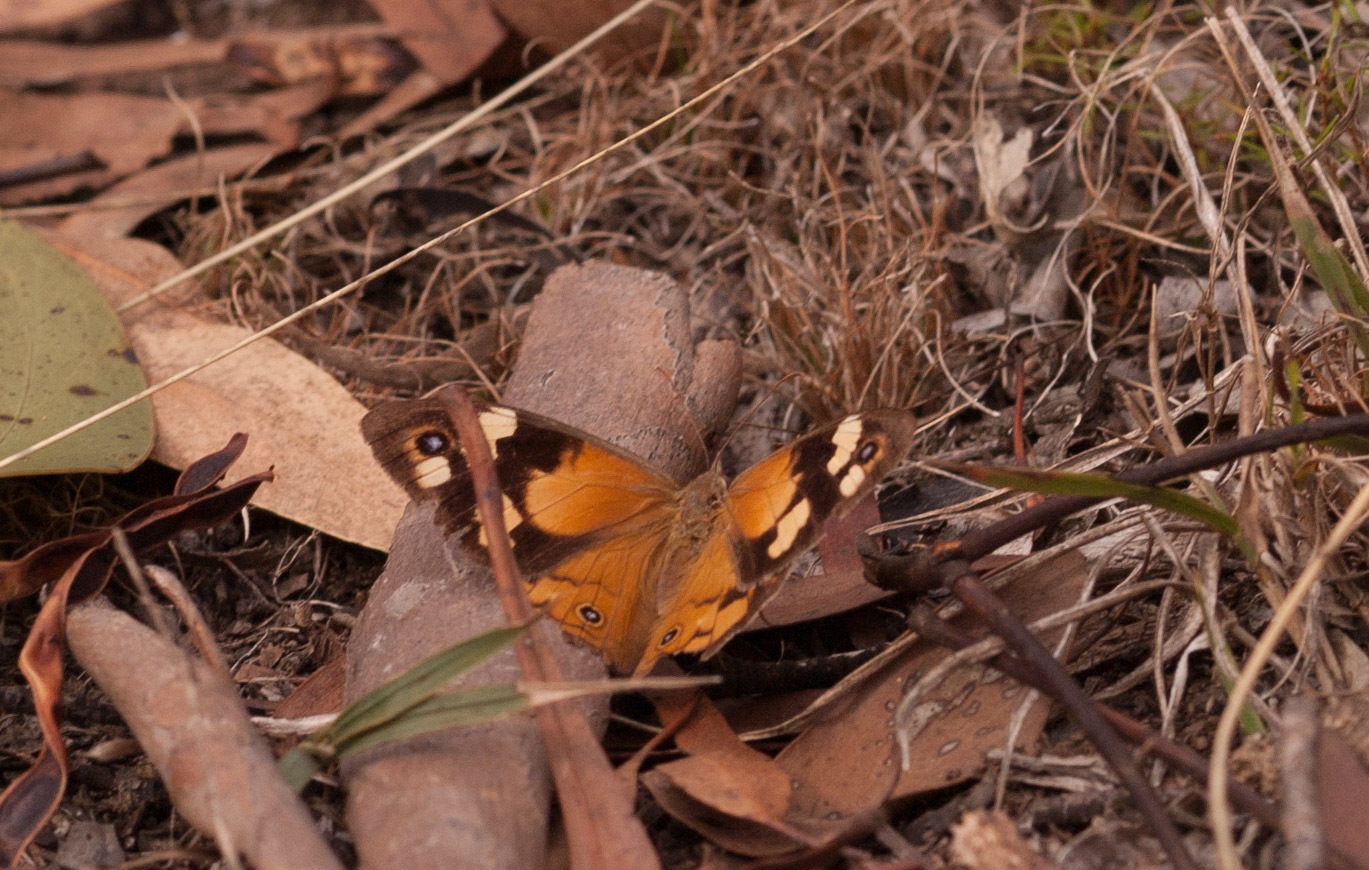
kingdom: Animalia
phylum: Arthropoda
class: Insecta
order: Lepidoptera
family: Nymphalidae
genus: Heteronympha
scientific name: Heteronympha merope
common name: Common brown
